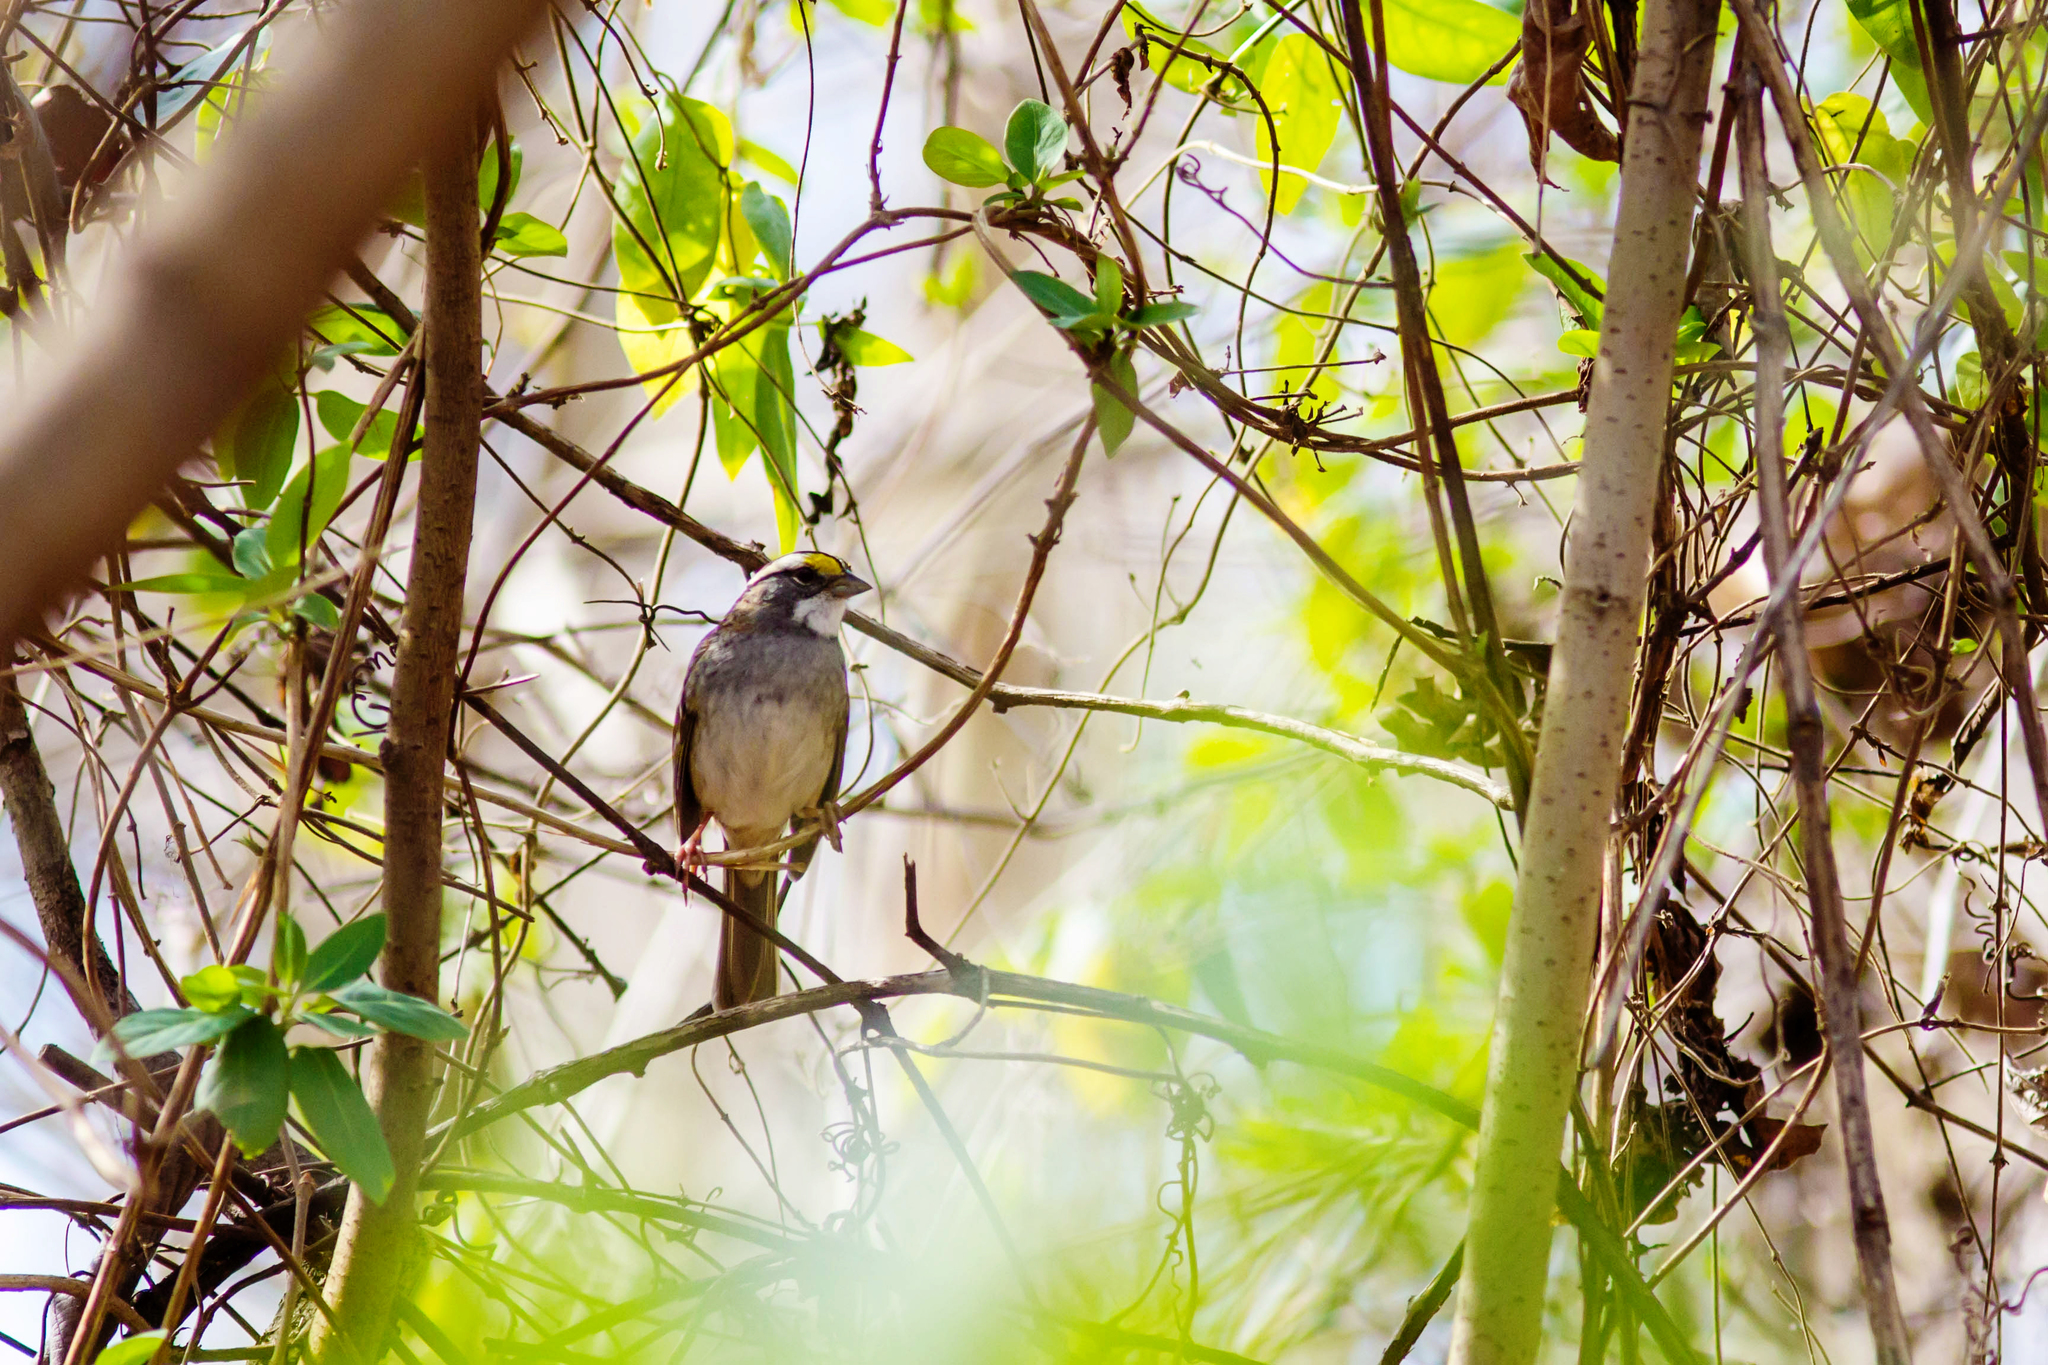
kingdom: Animalia
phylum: Chordata
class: Aves
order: Passeriformes
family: Passerellidae
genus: Zonotrichia
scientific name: Zonotrichia albicollis
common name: White-throated sparrow
